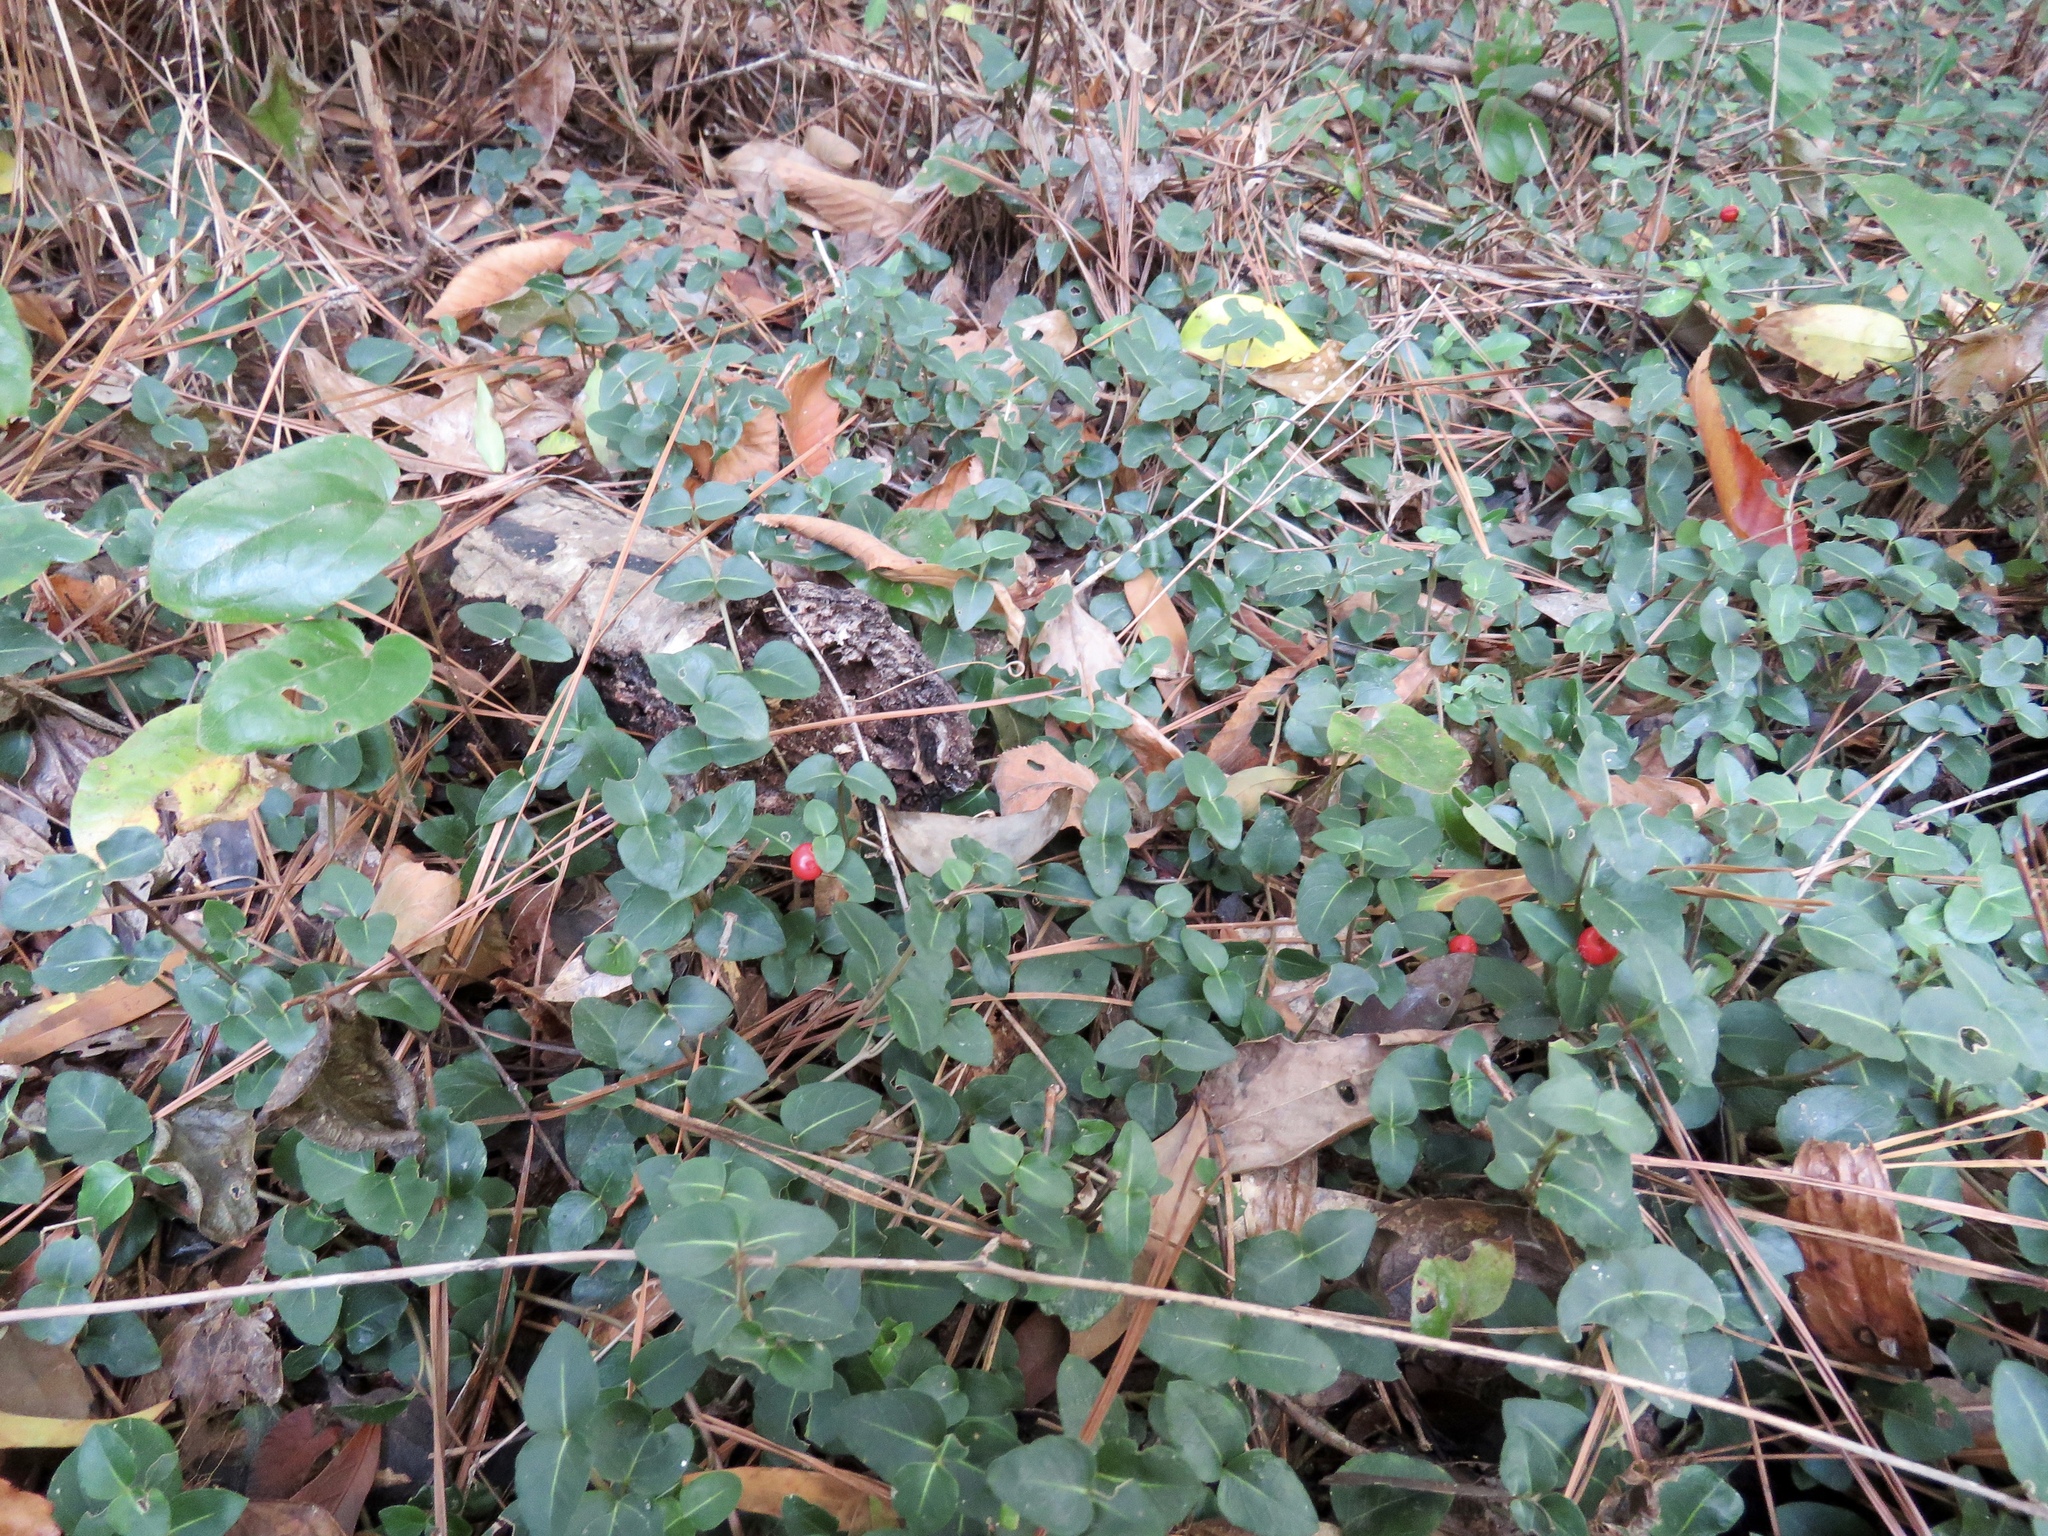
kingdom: Plantae
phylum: Tracheophyta
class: Magnoliopsida
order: Gentianales
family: Rubiaceae
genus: Mitchella
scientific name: Mitchella repens
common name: Partridge-berry
